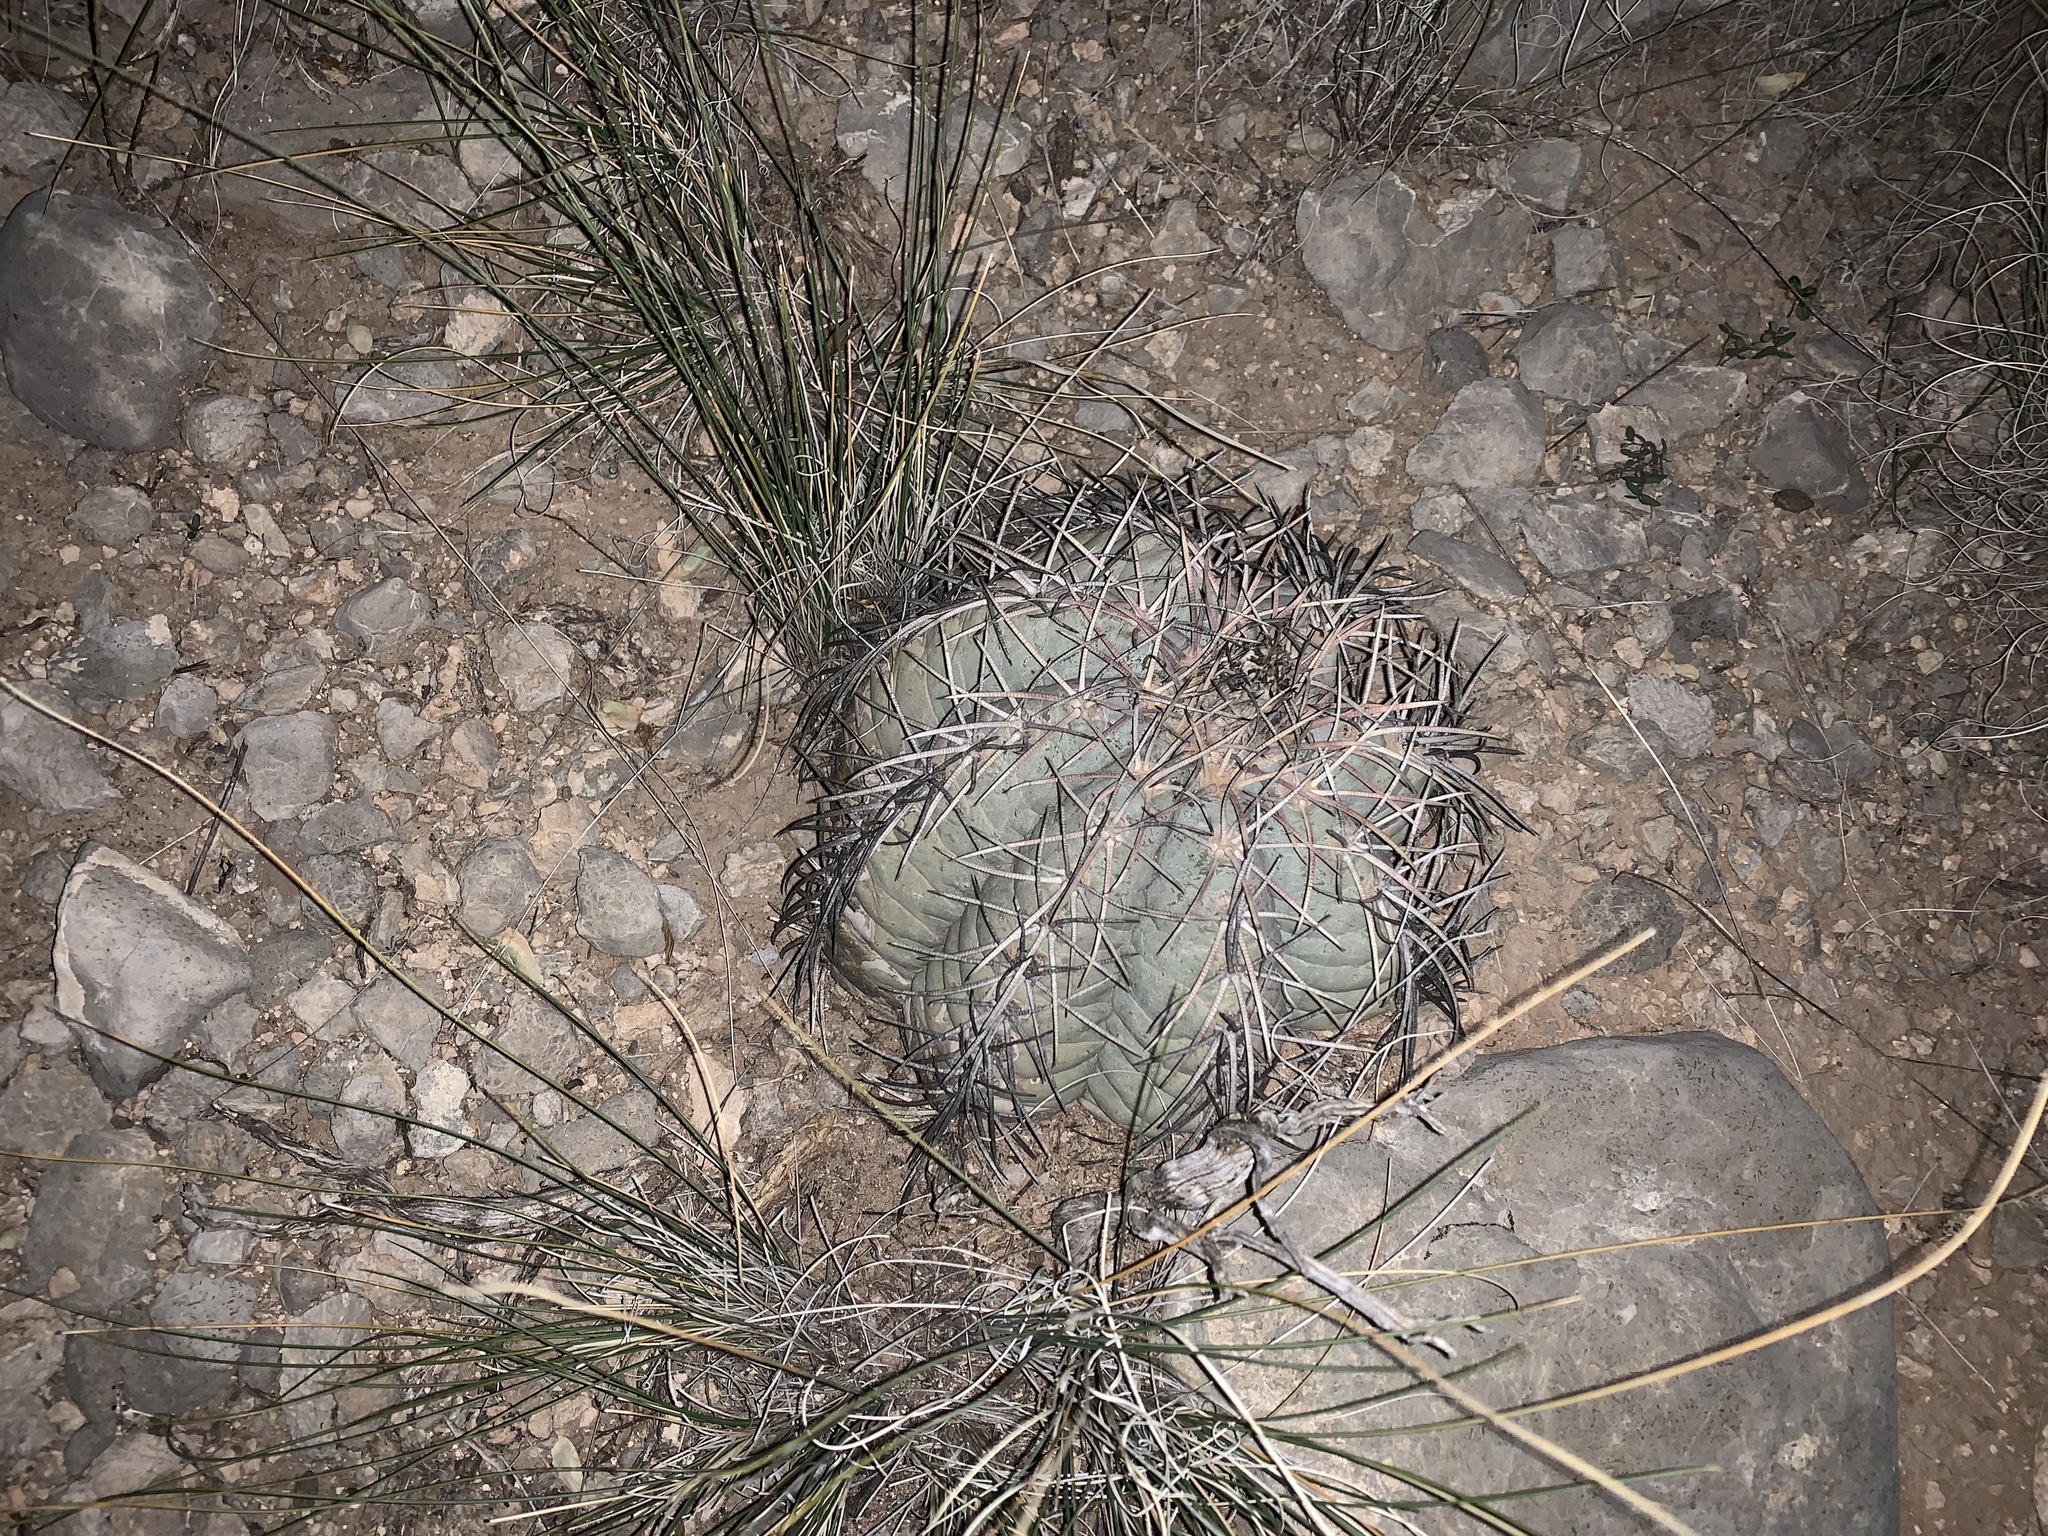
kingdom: Plantae
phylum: Tracheophyta
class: Magnoliopsida
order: Caryophyllales
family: Cactaceae
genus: Echinocactus
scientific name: Echinocactus horizonthalonius
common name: Devilshead
